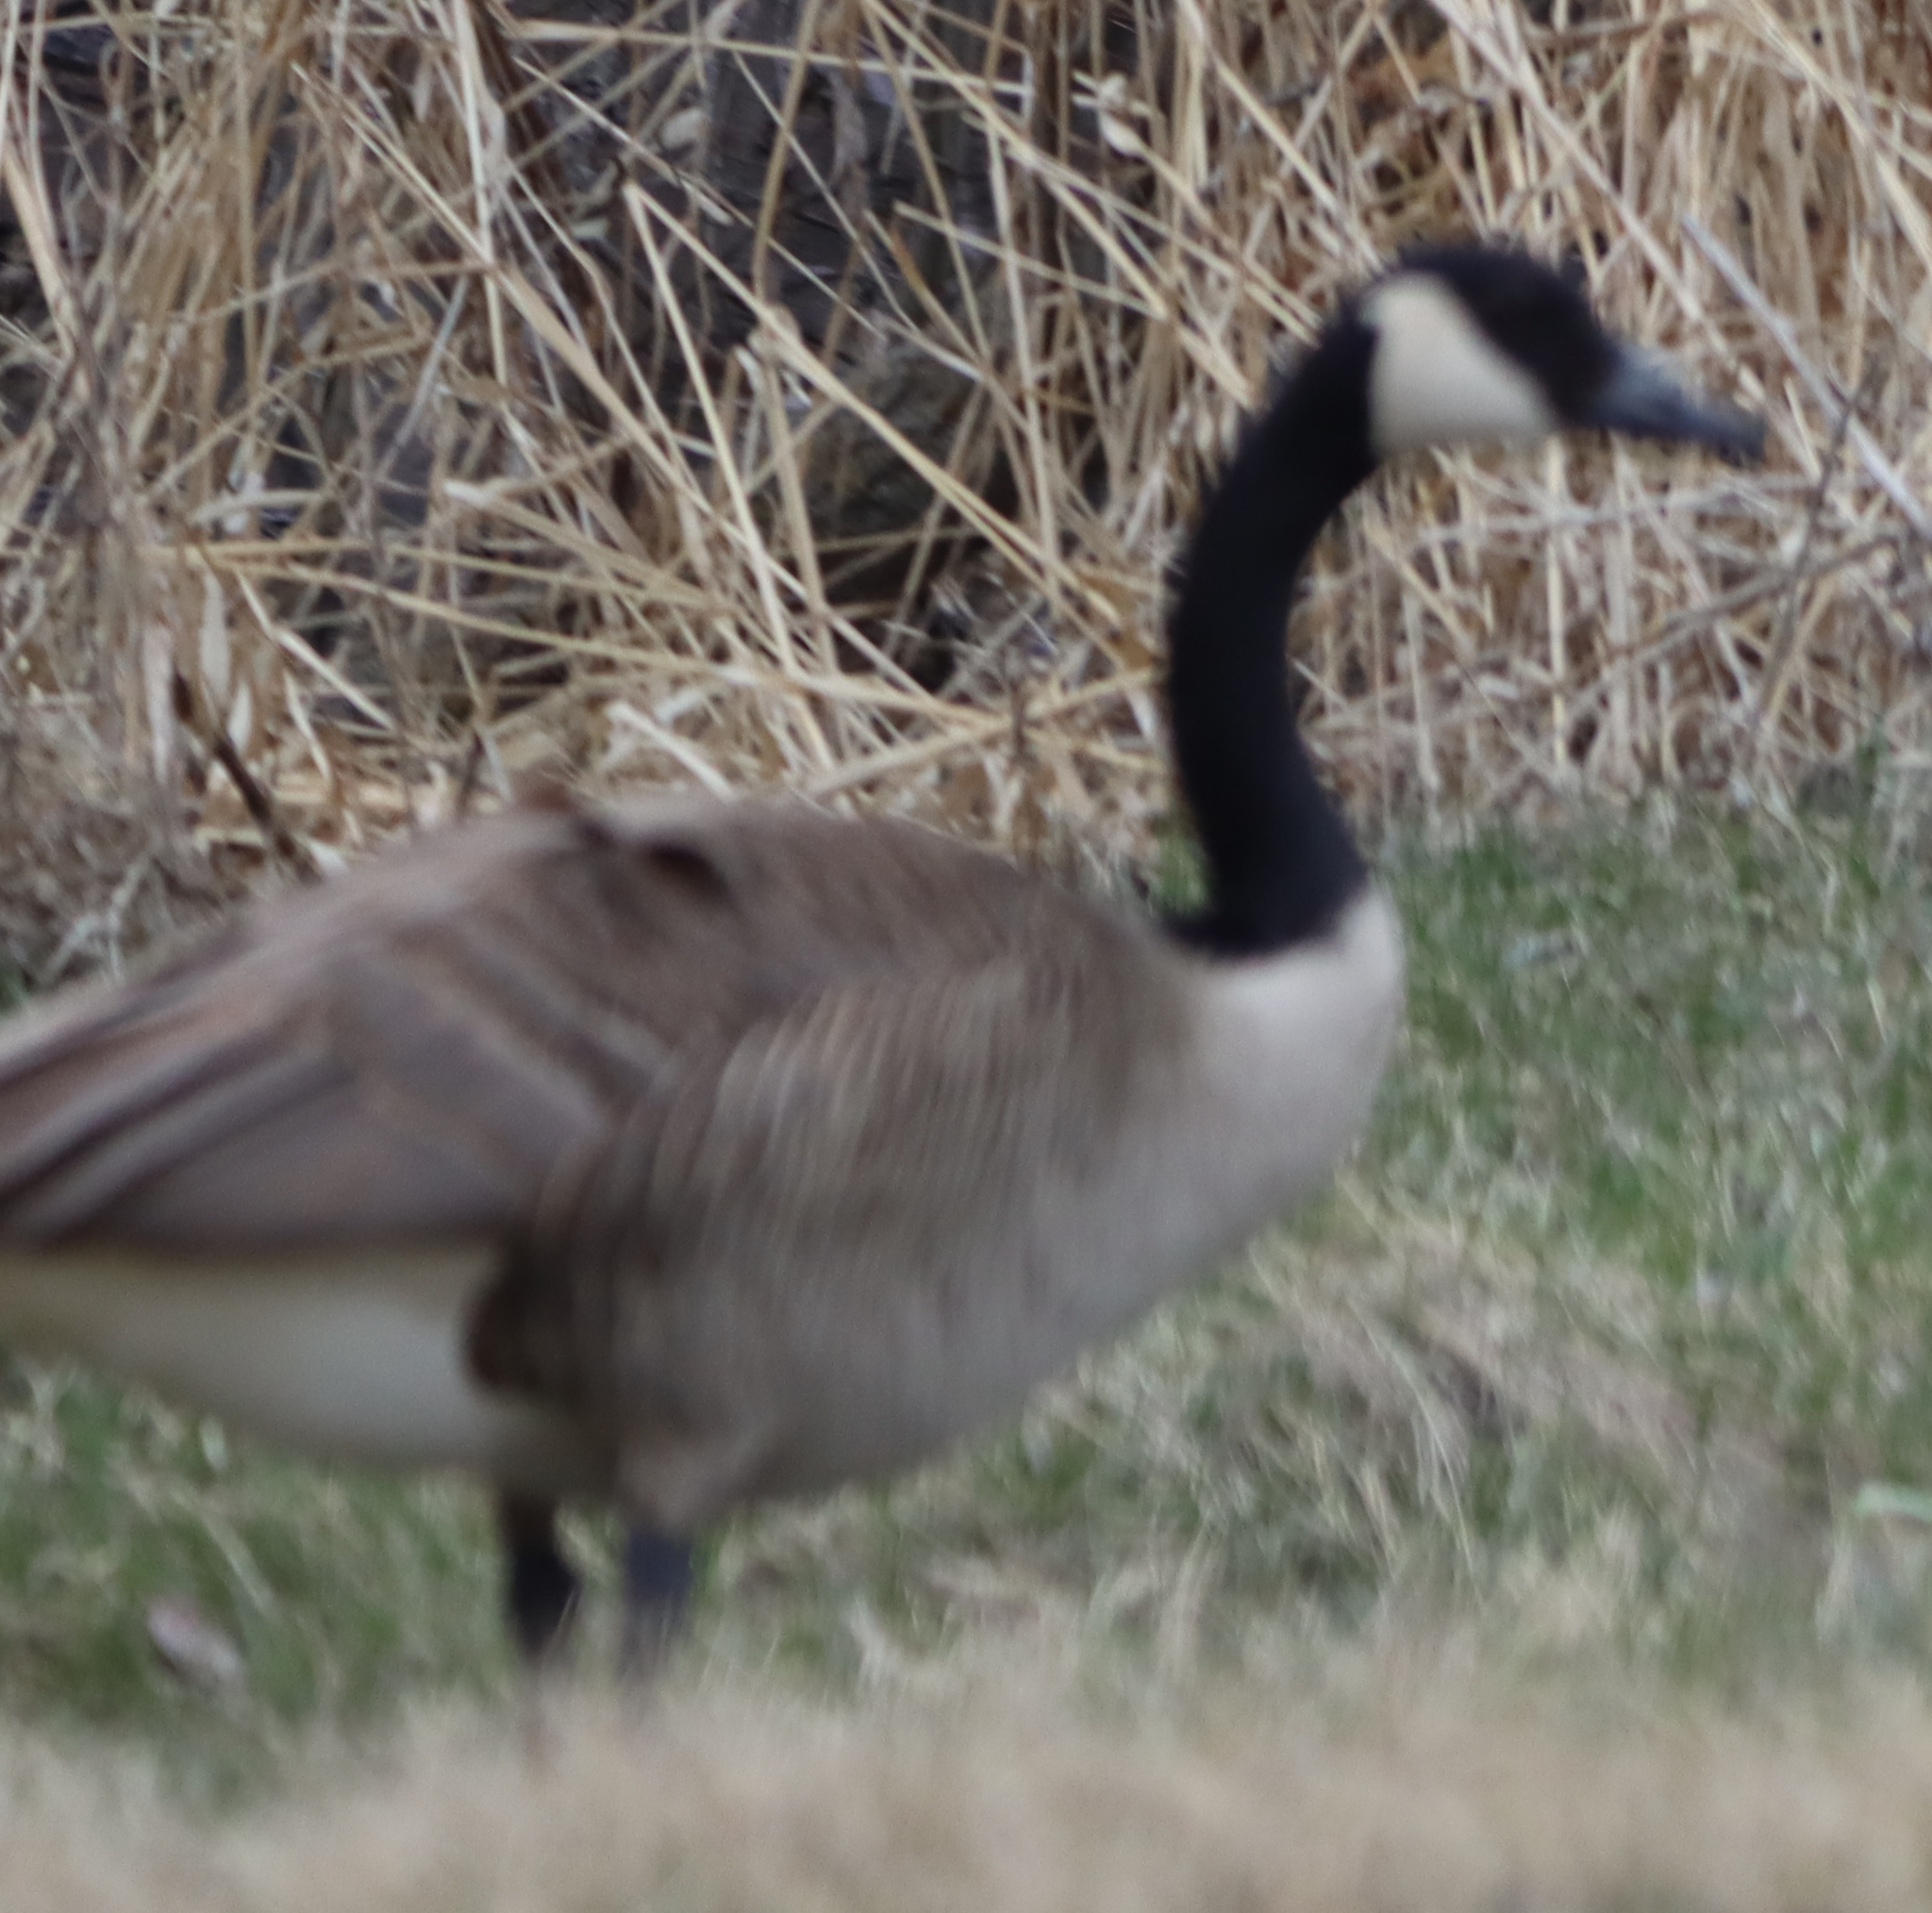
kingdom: Animalia
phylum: Chordata
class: Aves
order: Anseriformes
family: Anatidae
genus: Branta
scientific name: Branta canadensis
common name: Canada goose
